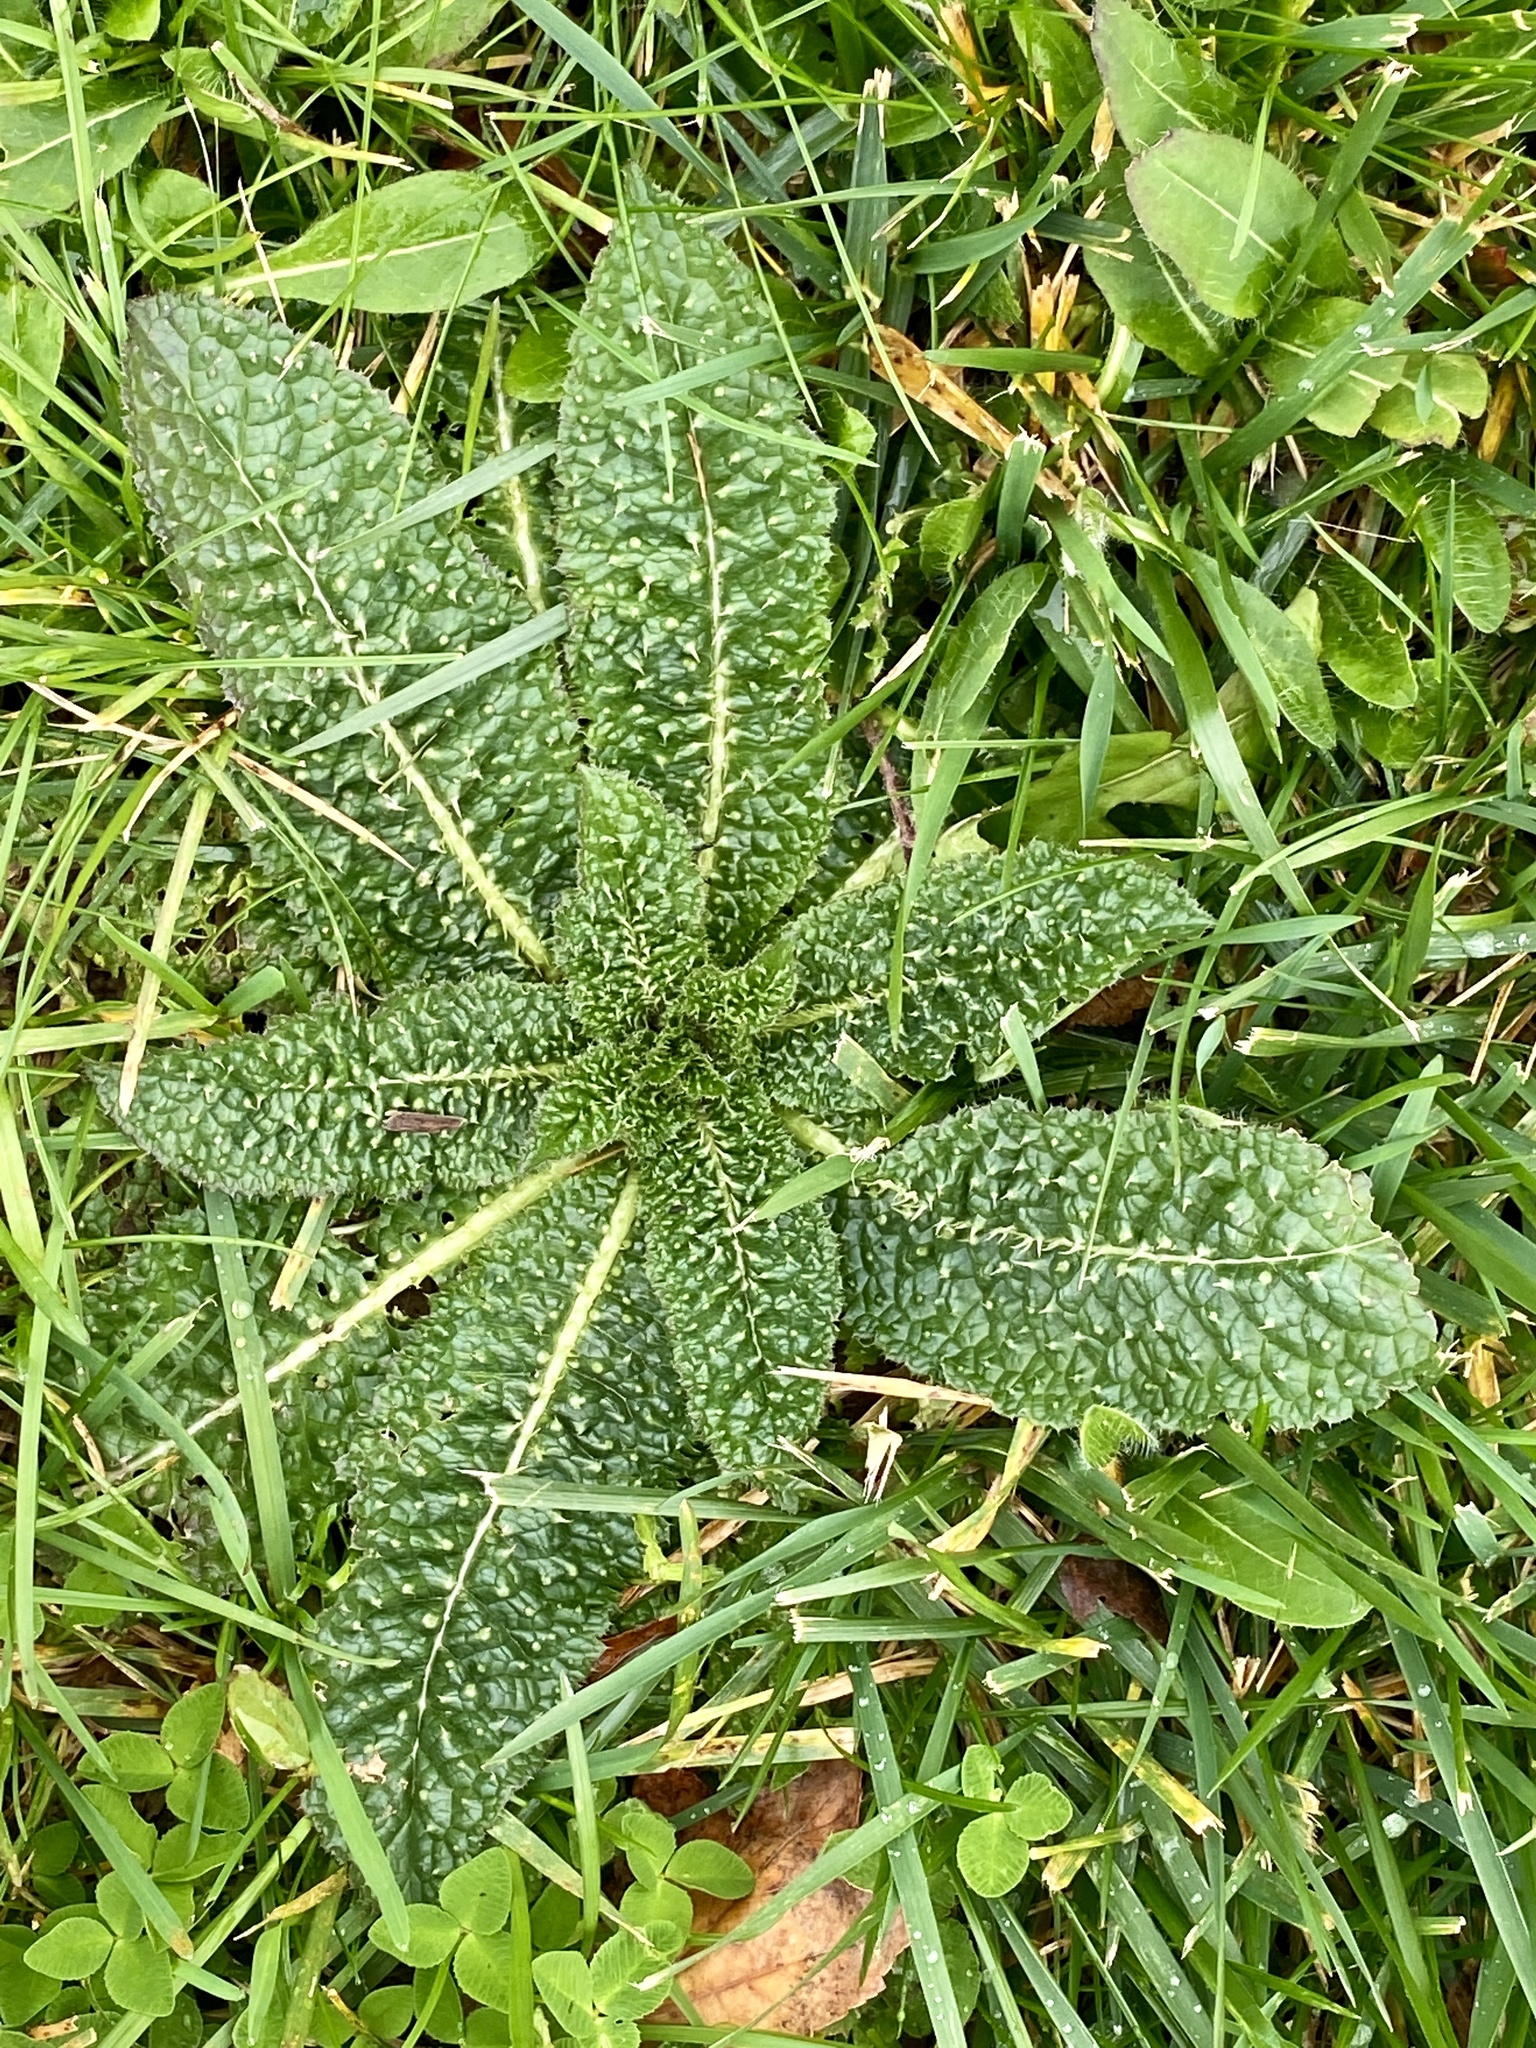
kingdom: Plantae
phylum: Tracheophyta
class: Magnoliopsida
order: Dipsacales
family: Caprifoliaceae
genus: Dipsacus
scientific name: Dipsacus fullonum
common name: Teasel
